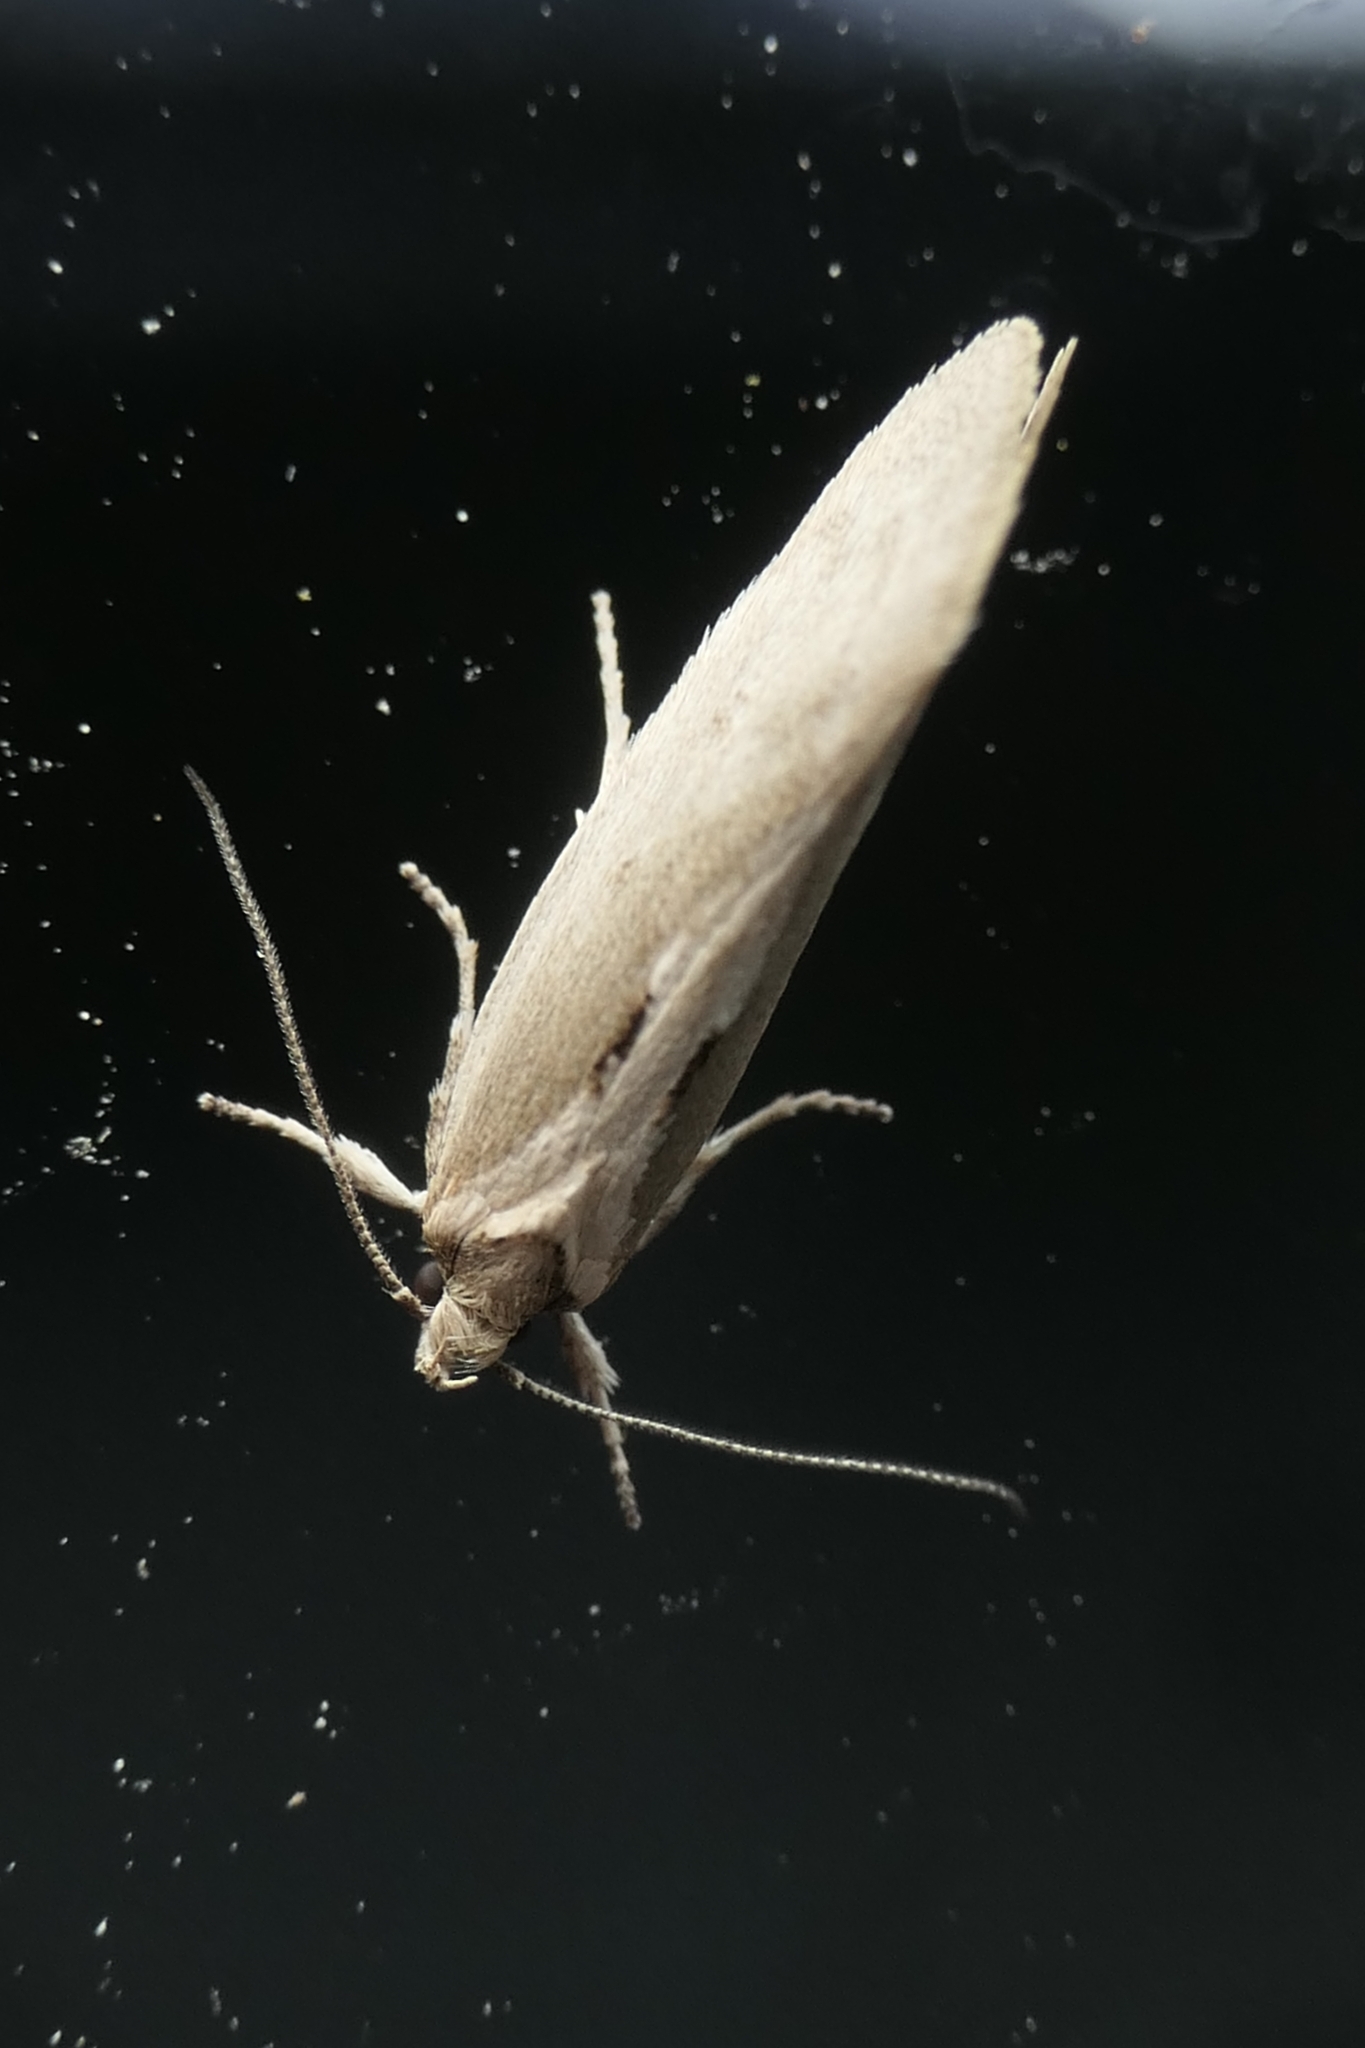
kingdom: Animalia
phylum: Arthropoda
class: Insecta
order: Lepidoptera
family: Oecophoridae
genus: Tingena
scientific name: Tingena chloradelpha
